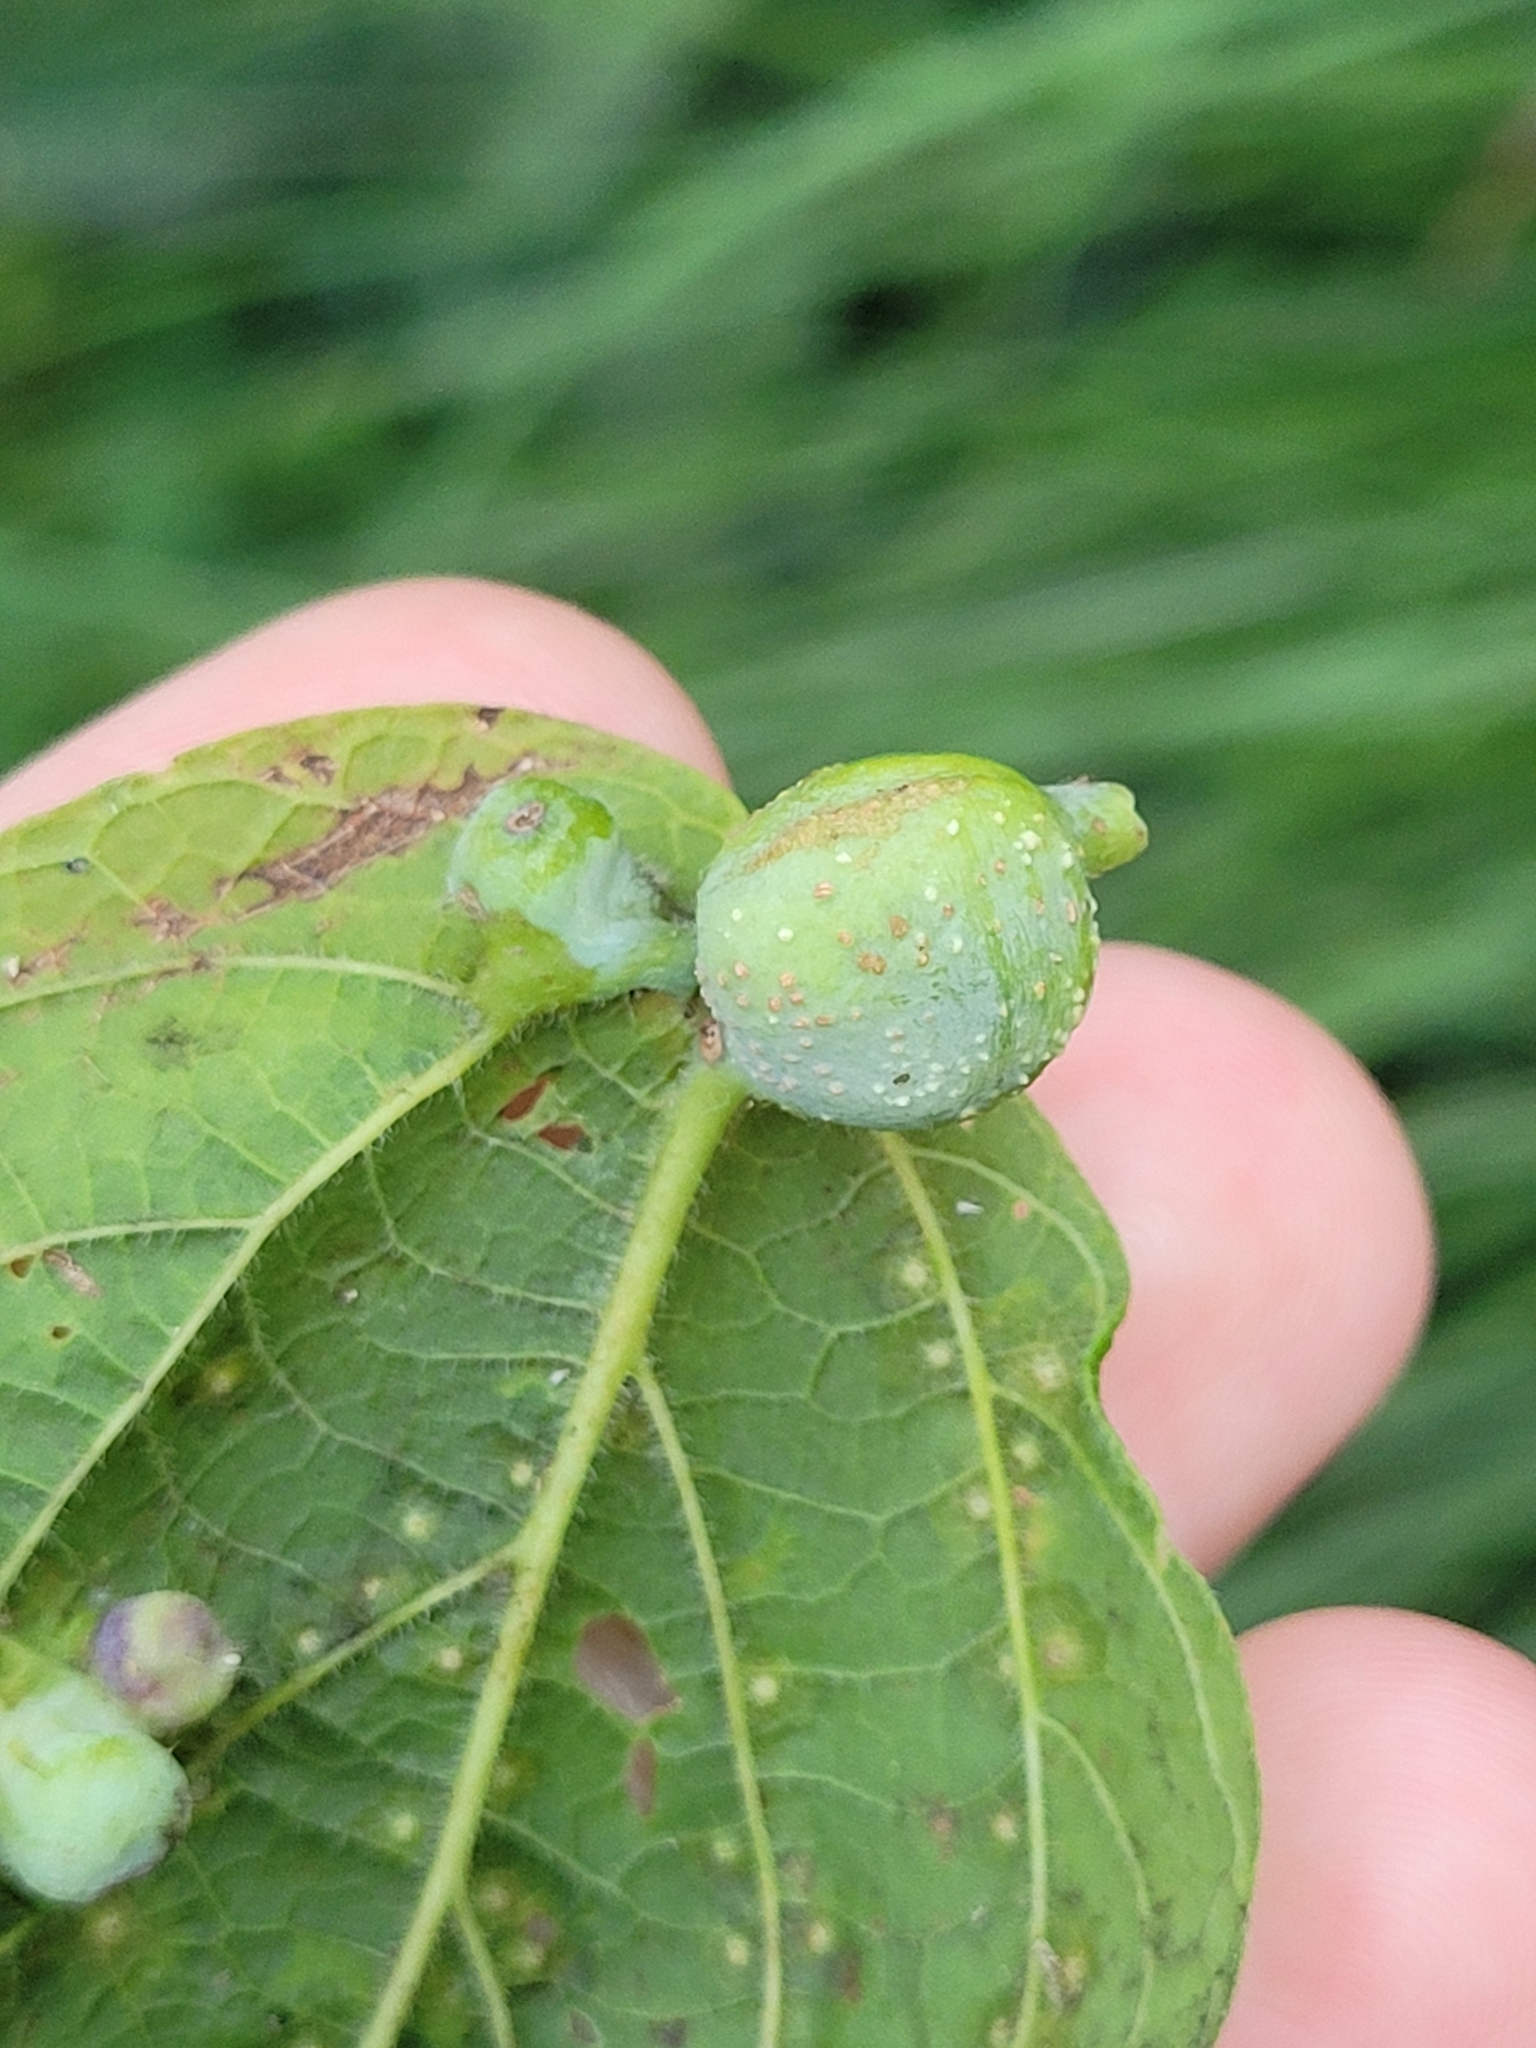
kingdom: Animalia
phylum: Arthropoda
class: Insecta
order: Hemiptera
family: Aphalaridae
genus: Pachypsylla
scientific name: Pachypsylla venusta
